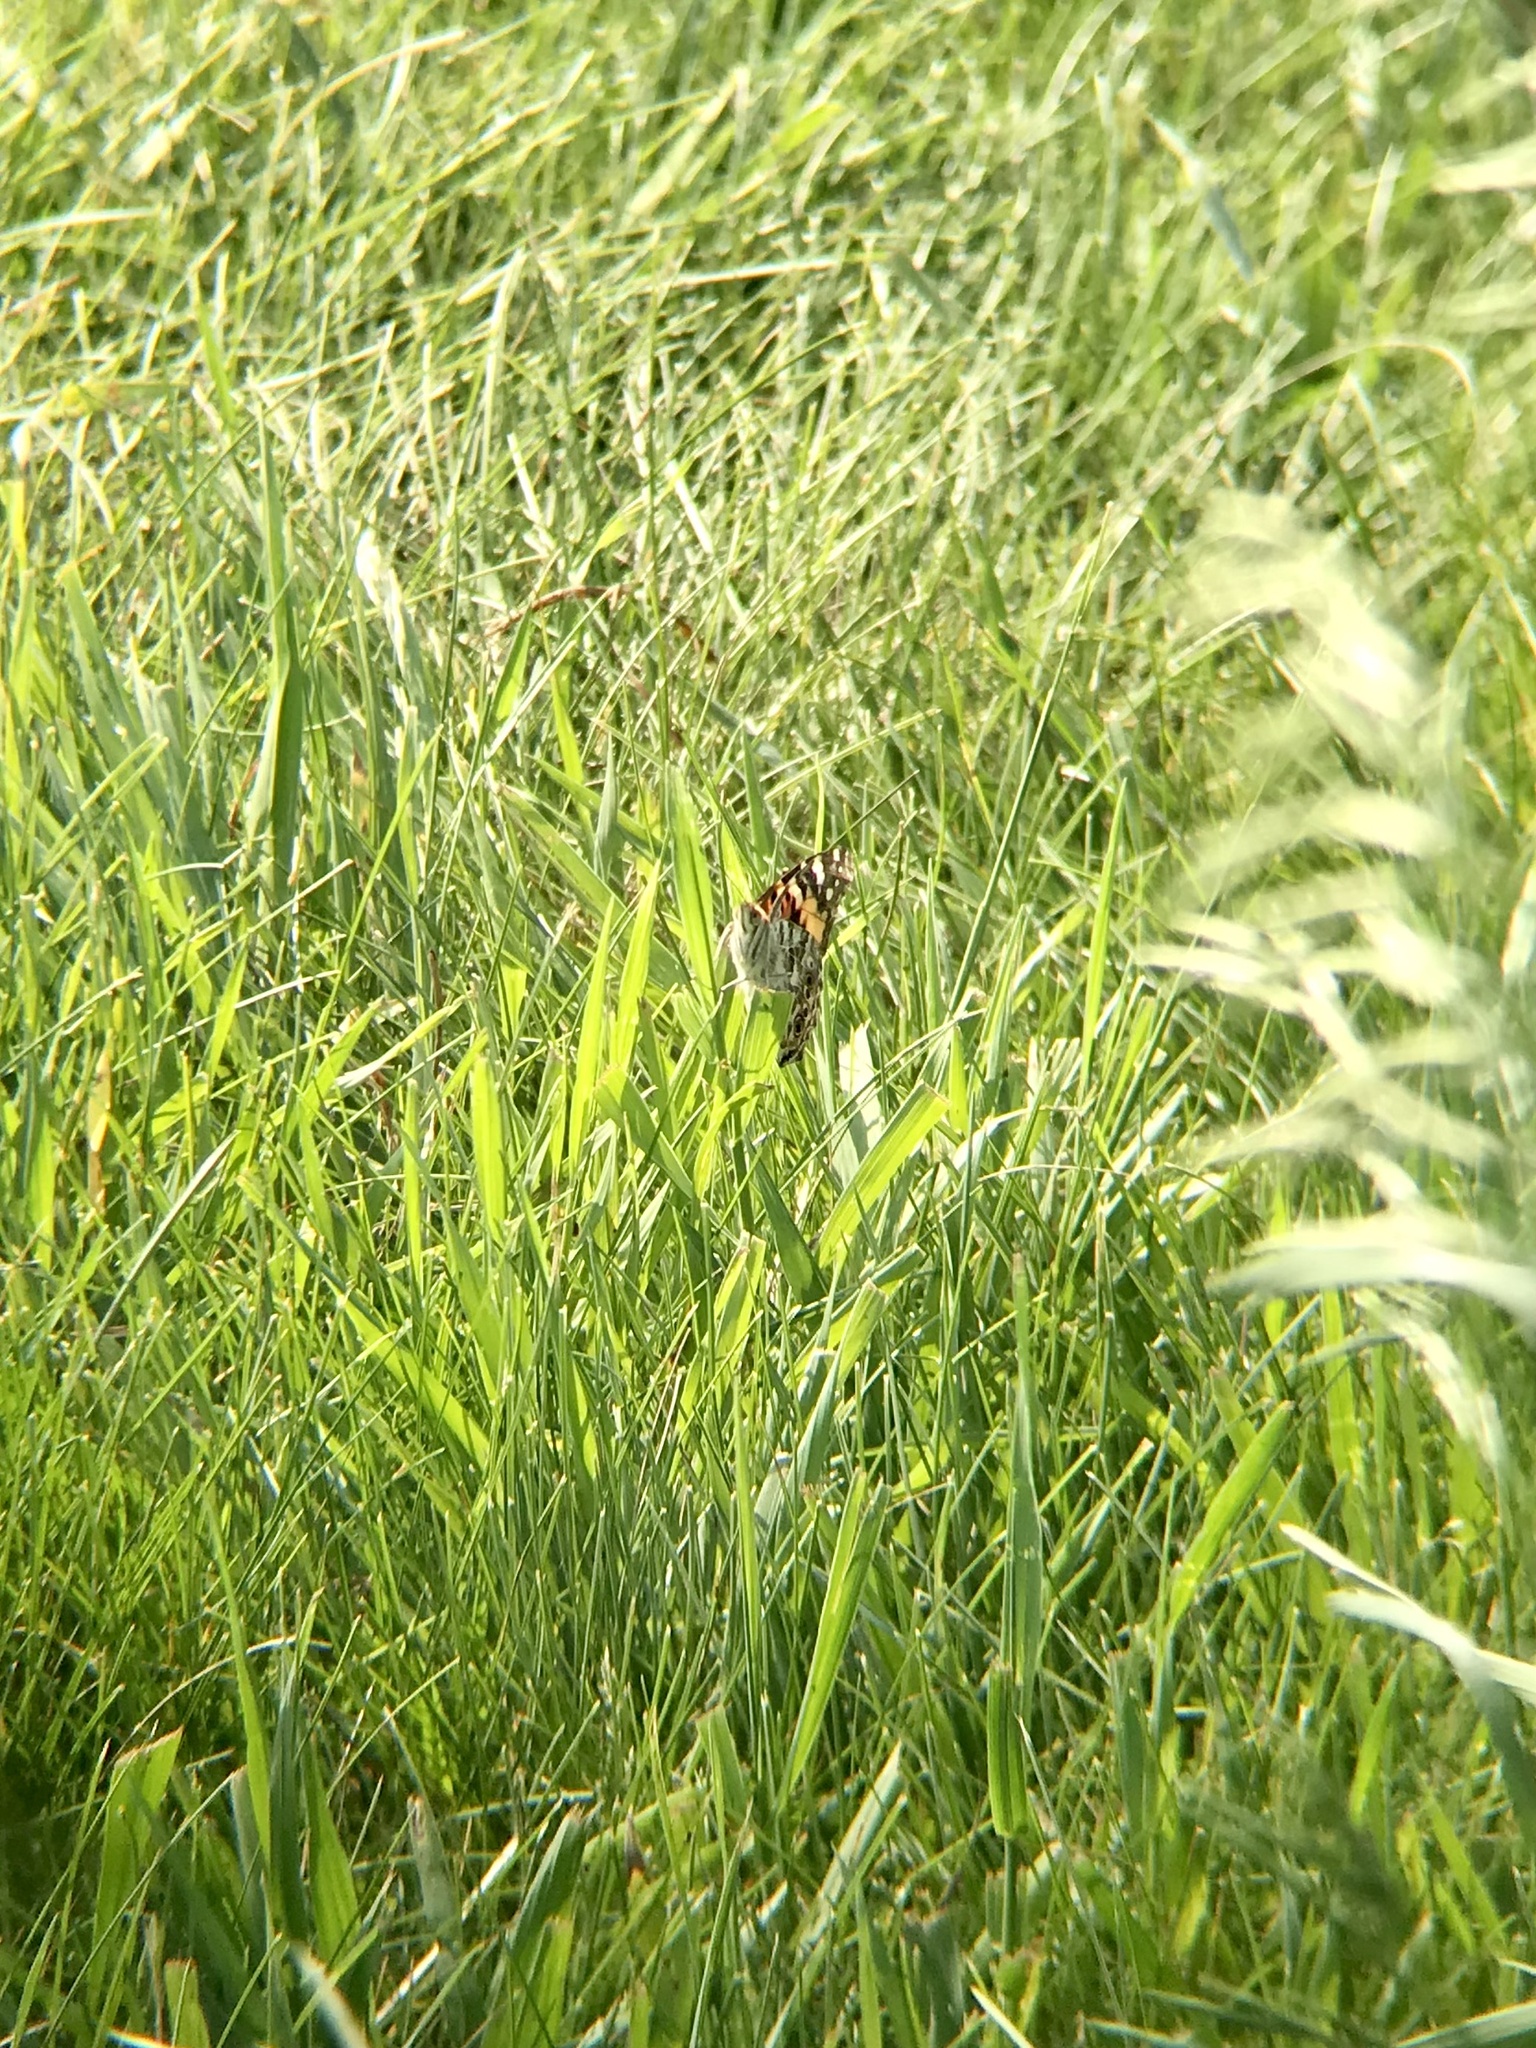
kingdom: Animalia
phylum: Arthropoda
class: Insecta
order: Lepidoptera
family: Nymphalidae
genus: Vanessa
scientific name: Vanessa cardui
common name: Painted lady
